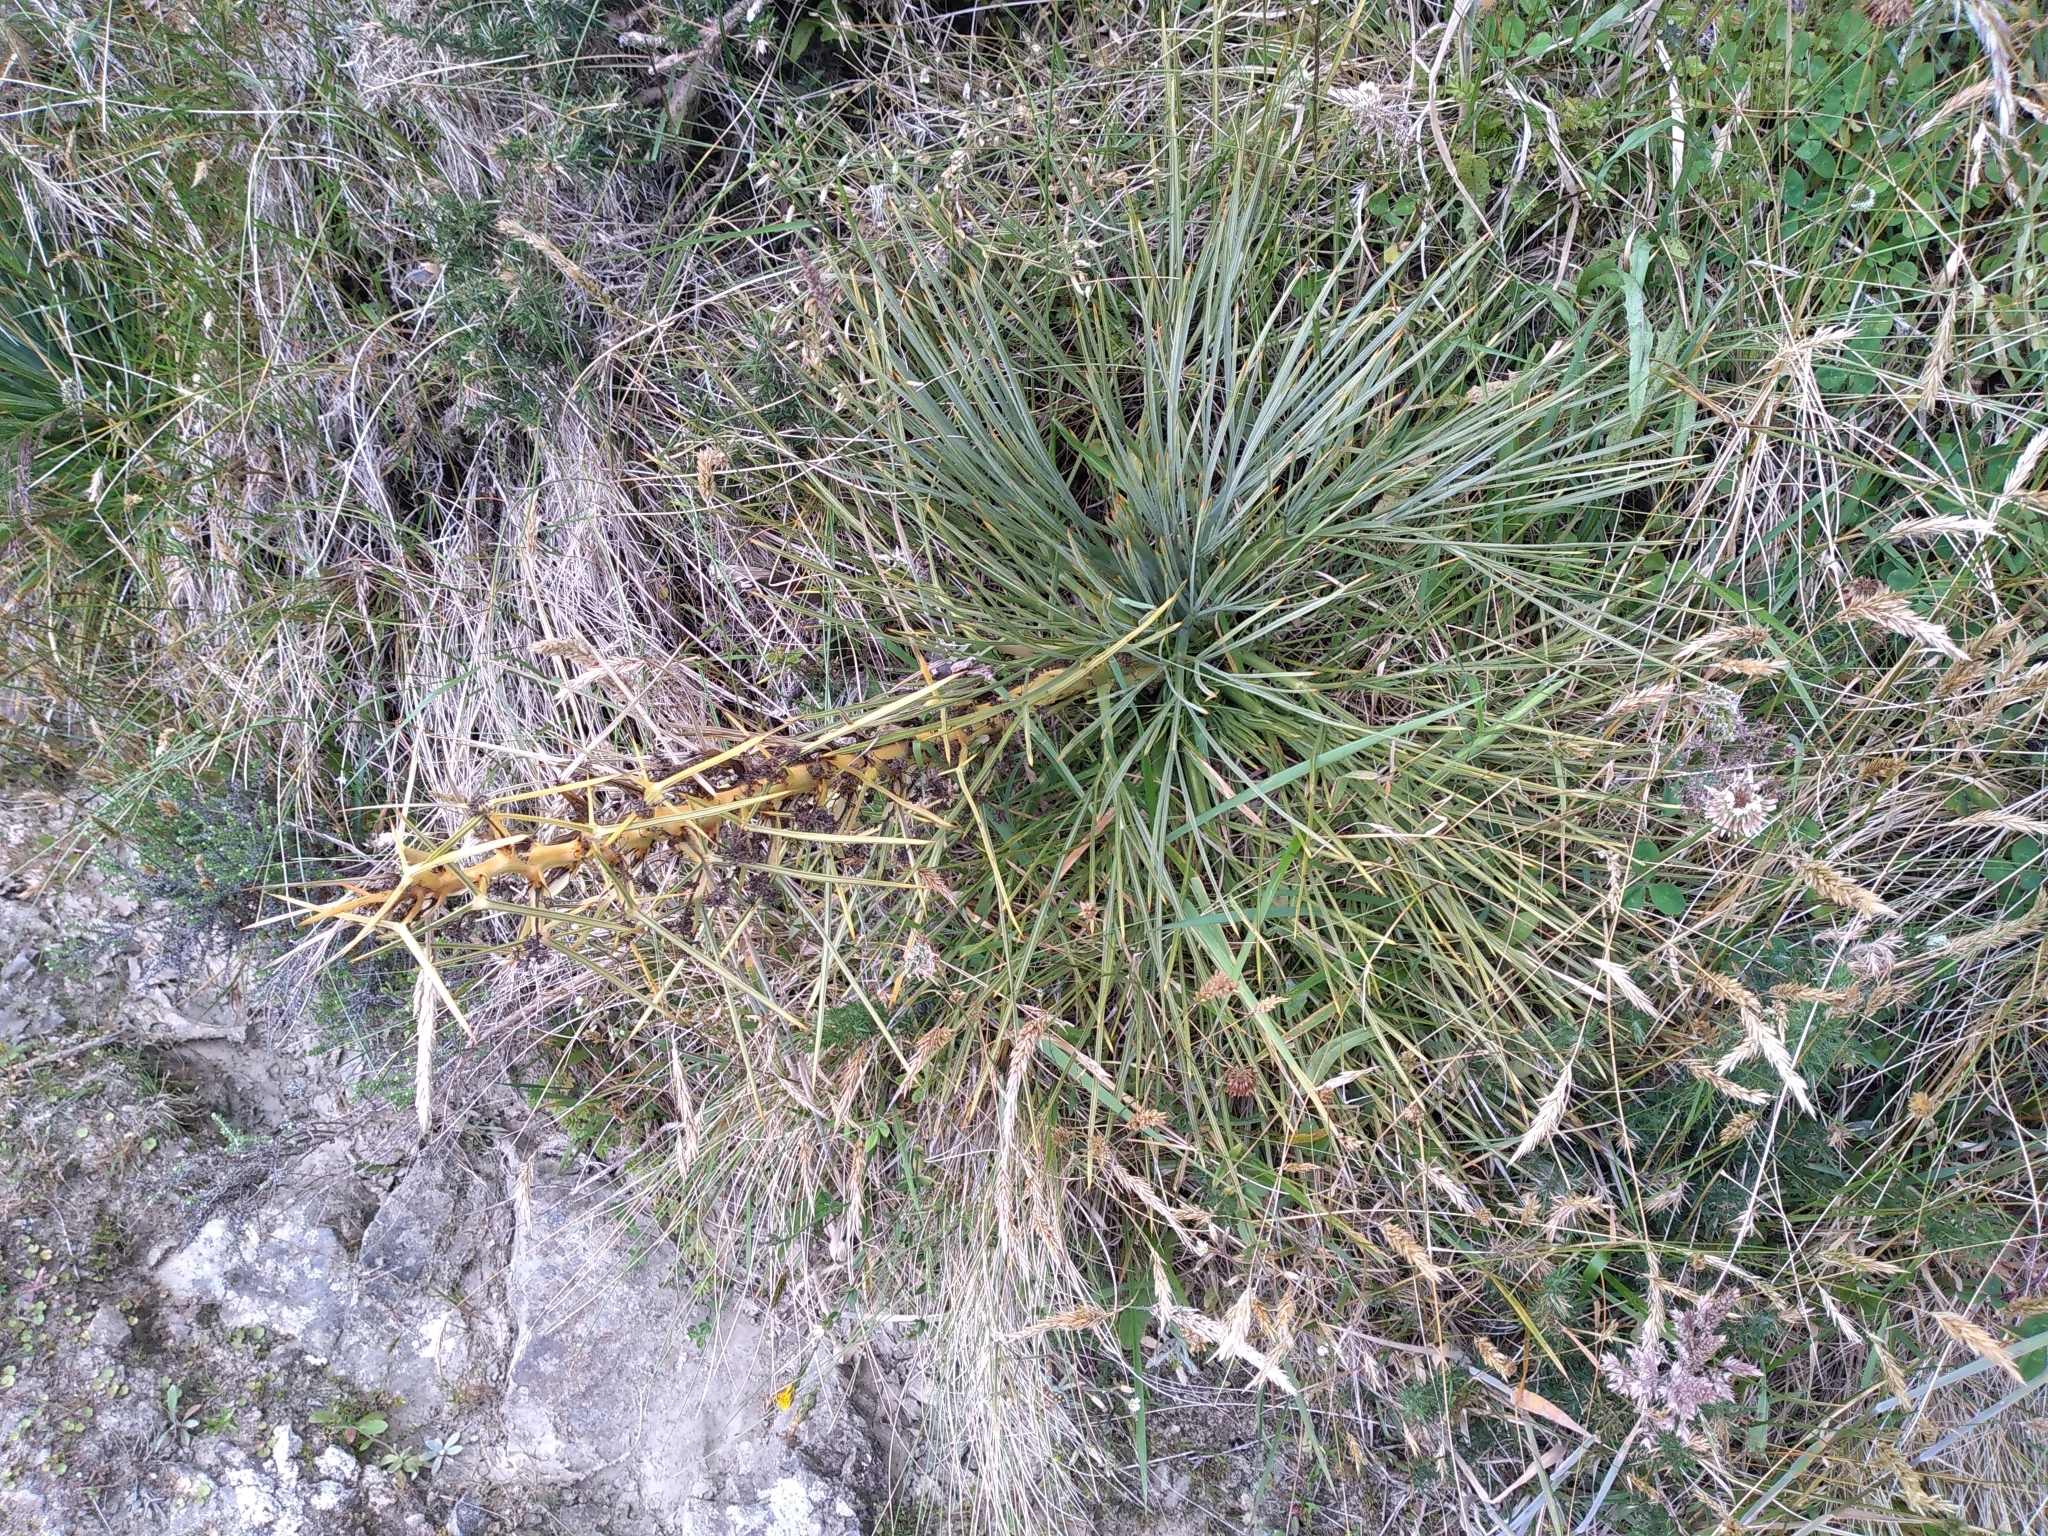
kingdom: Plantae
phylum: Tracheophyta
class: Magnoliopsida
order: Apiales
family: Apiaceae
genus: Aciphylla
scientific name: Aciphylla squarrosa
